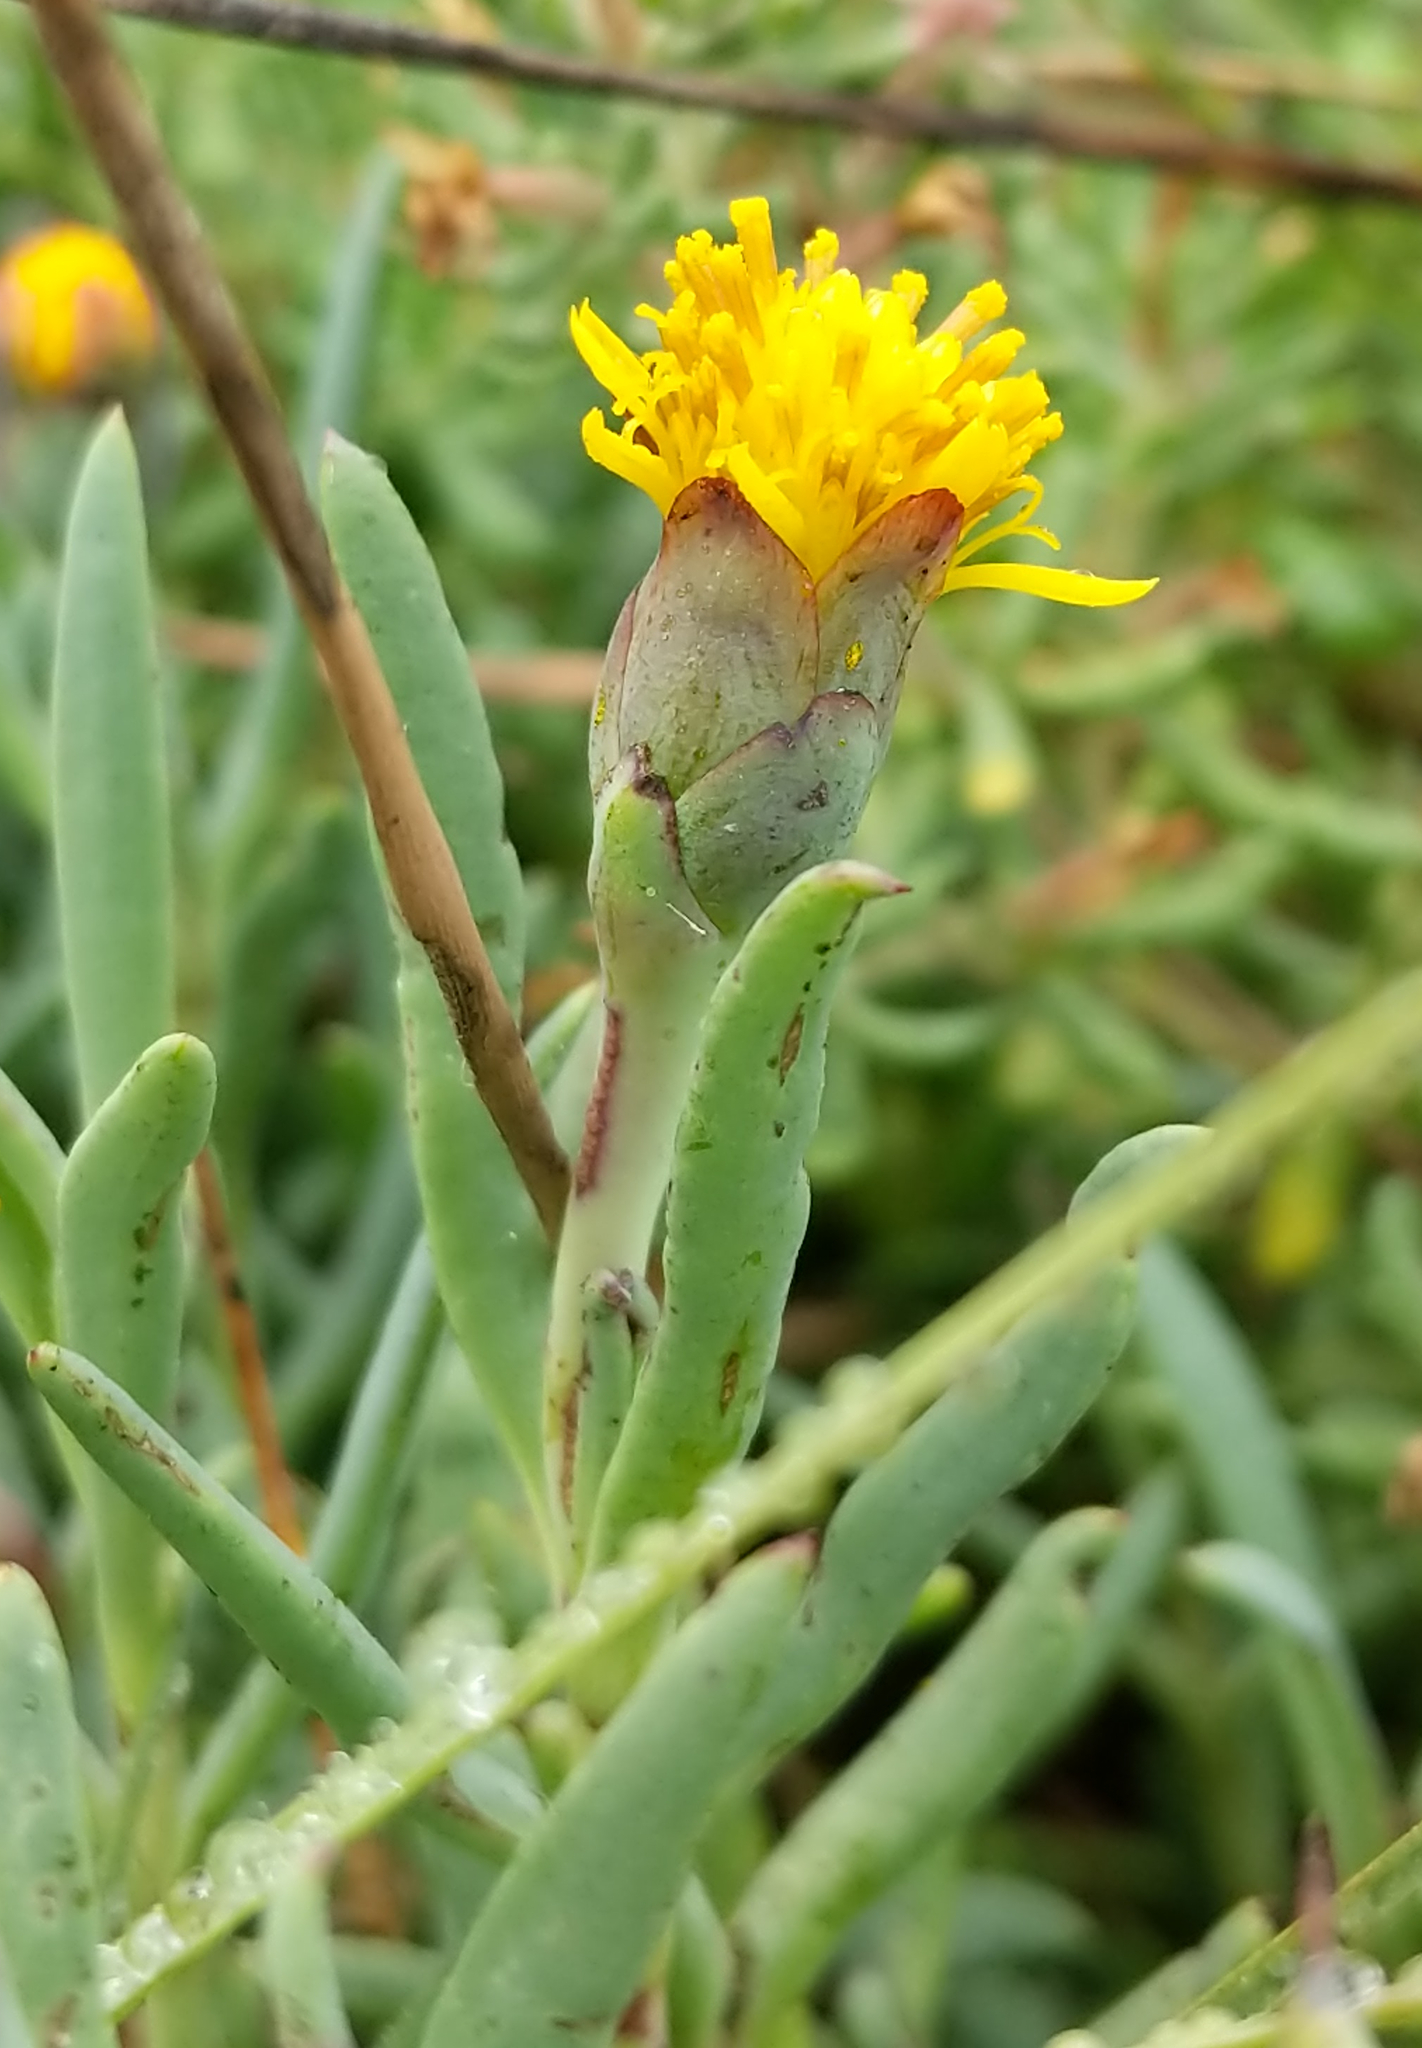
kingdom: Plantae
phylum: Tracheophyta
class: Magnoliopsida
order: Asterales
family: Asteraceae
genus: Jaumea
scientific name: Jaumea carnosa
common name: Fleshy jaumea
